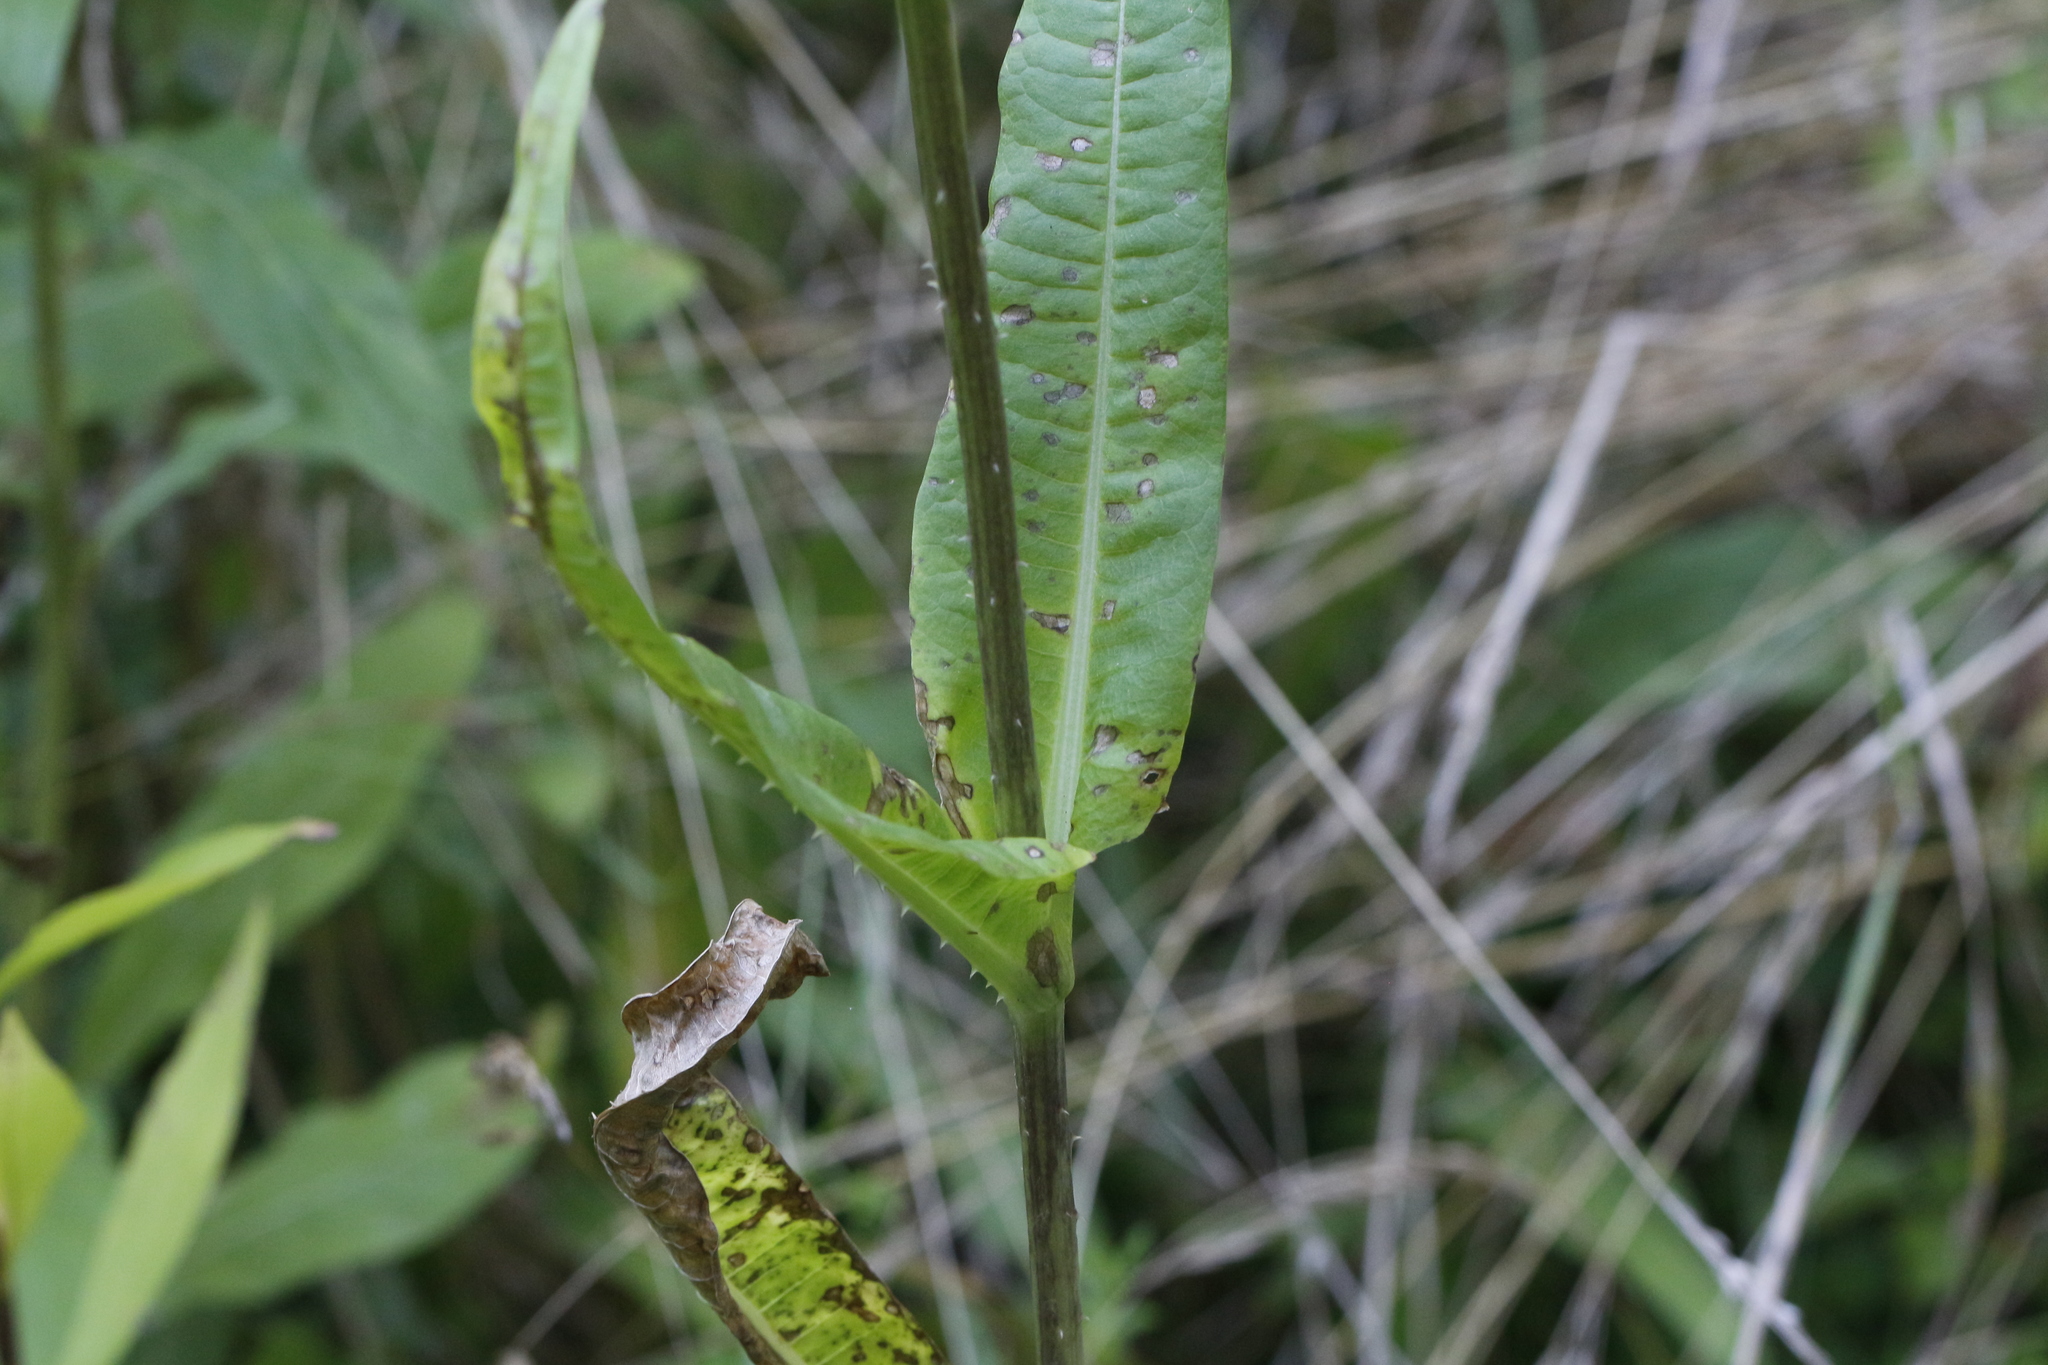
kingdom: Plantae
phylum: Tracheophyta
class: Magnoliopsida
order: Dipsacales
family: Caprifoliaceae
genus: Dipsacus
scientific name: Dipsacus fullonum
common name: Teasel
